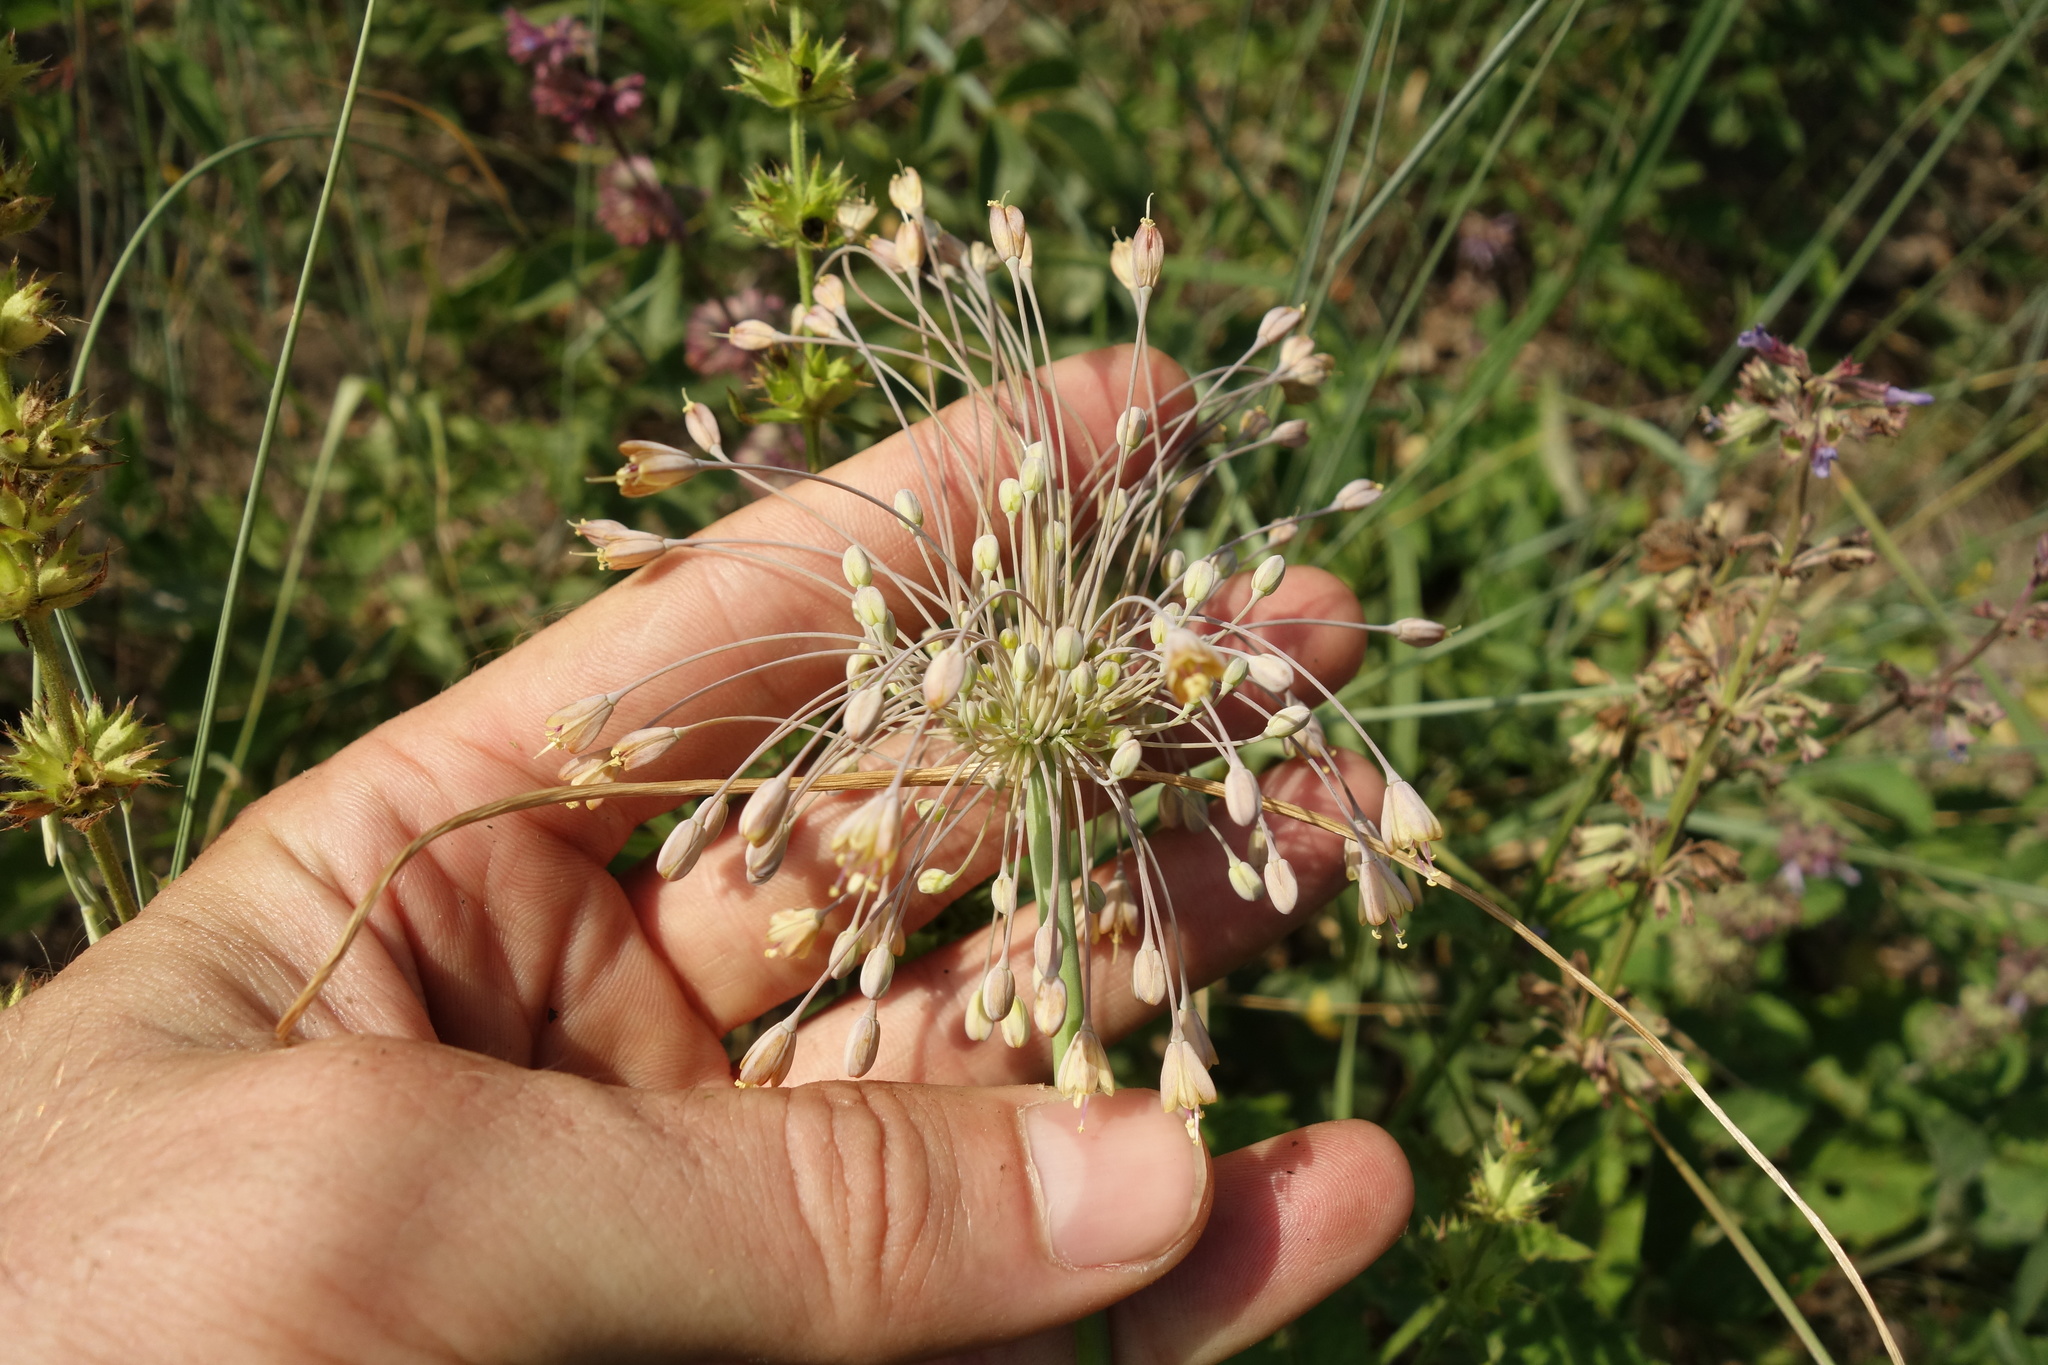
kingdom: Plantae
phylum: Tracheophyta
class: Liliopsida
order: Asparagales
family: Amaryllidaceae
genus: Allium
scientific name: Allium flavum
